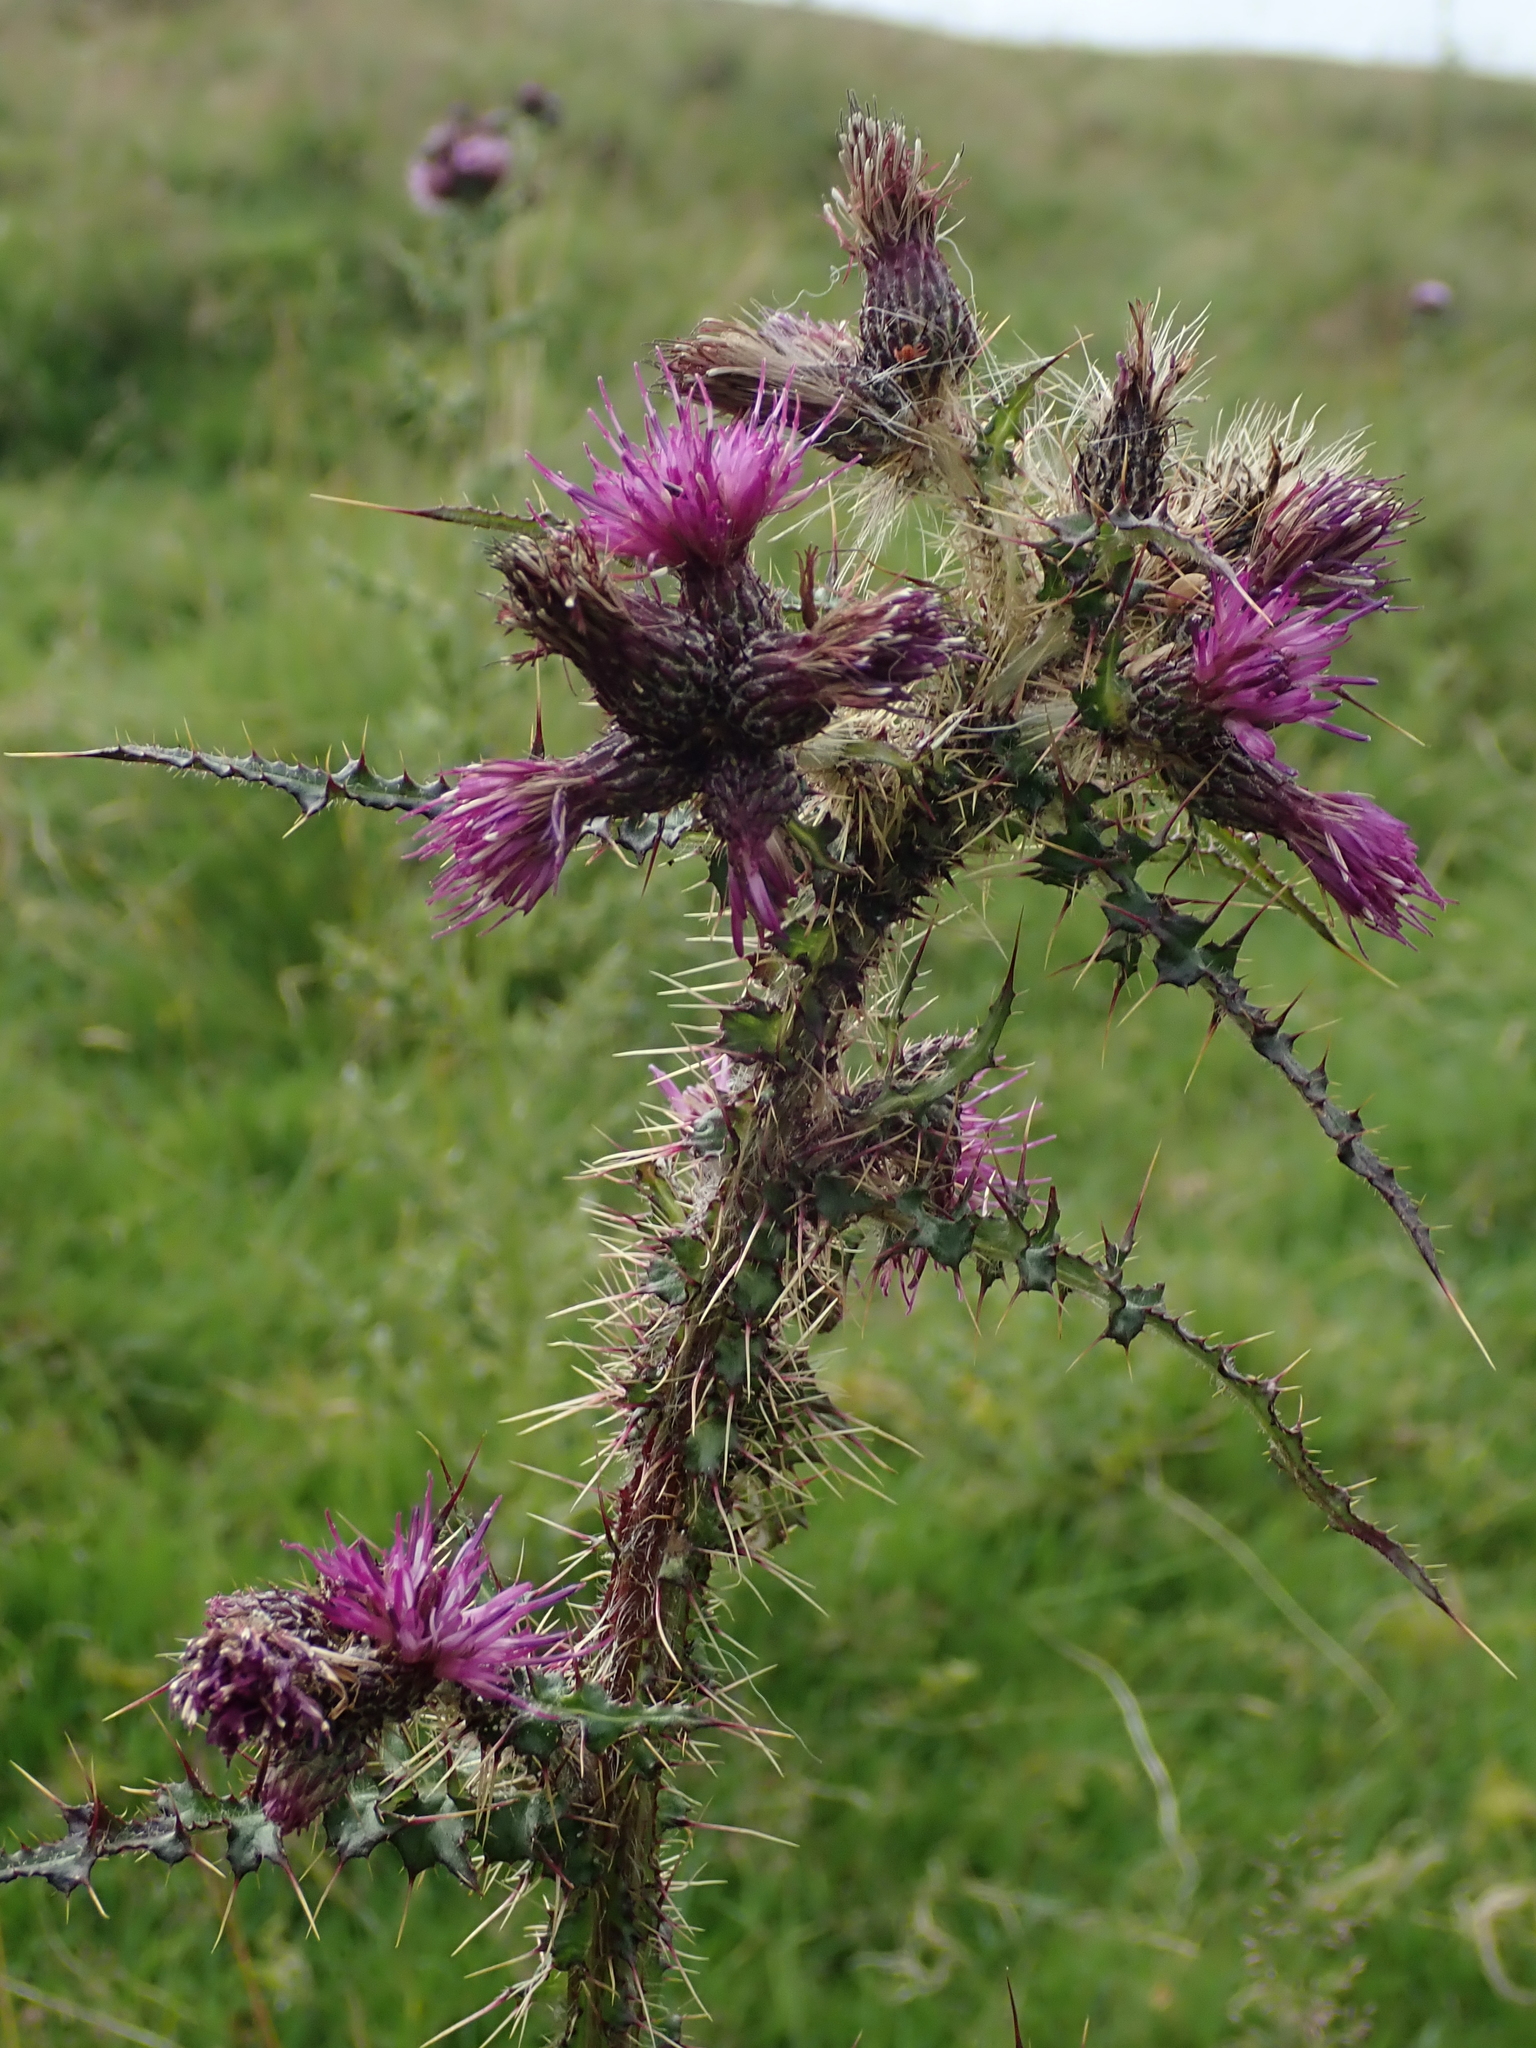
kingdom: Plantae
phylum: Tracheophyta
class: Magnoliopsida
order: Asterales
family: Asteraceae
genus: Cirsium
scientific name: Cirsium palustre
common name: Marsh thistle
